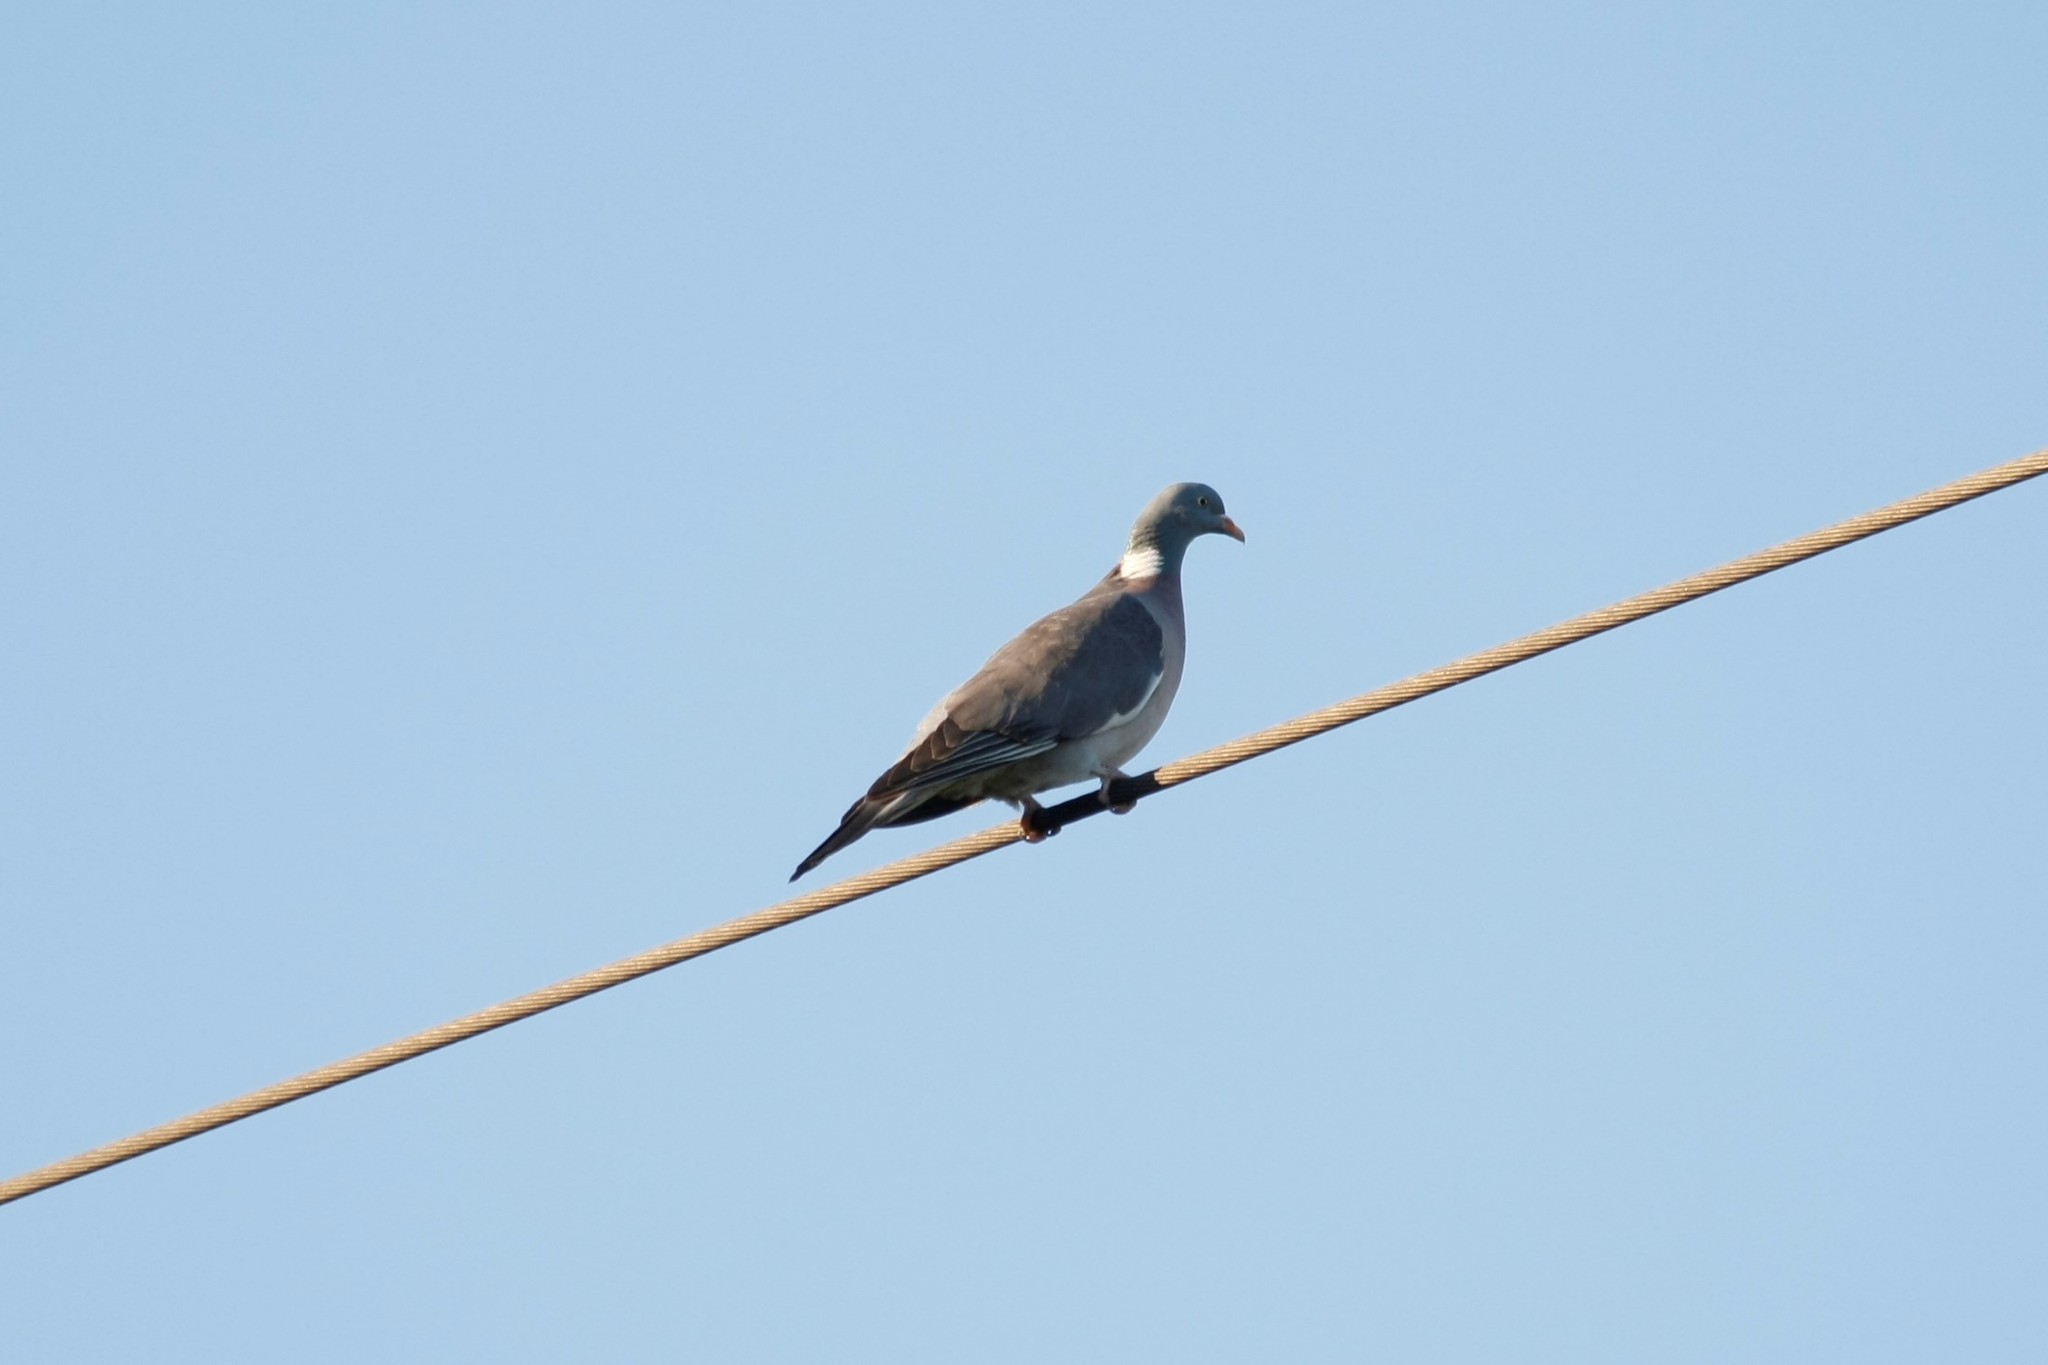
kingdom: Animalia
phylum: Chordata
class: Aves
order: Columbiformes
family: Columbidae
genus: Columba
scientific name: Columba palumbus
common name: Common wood pigeon
